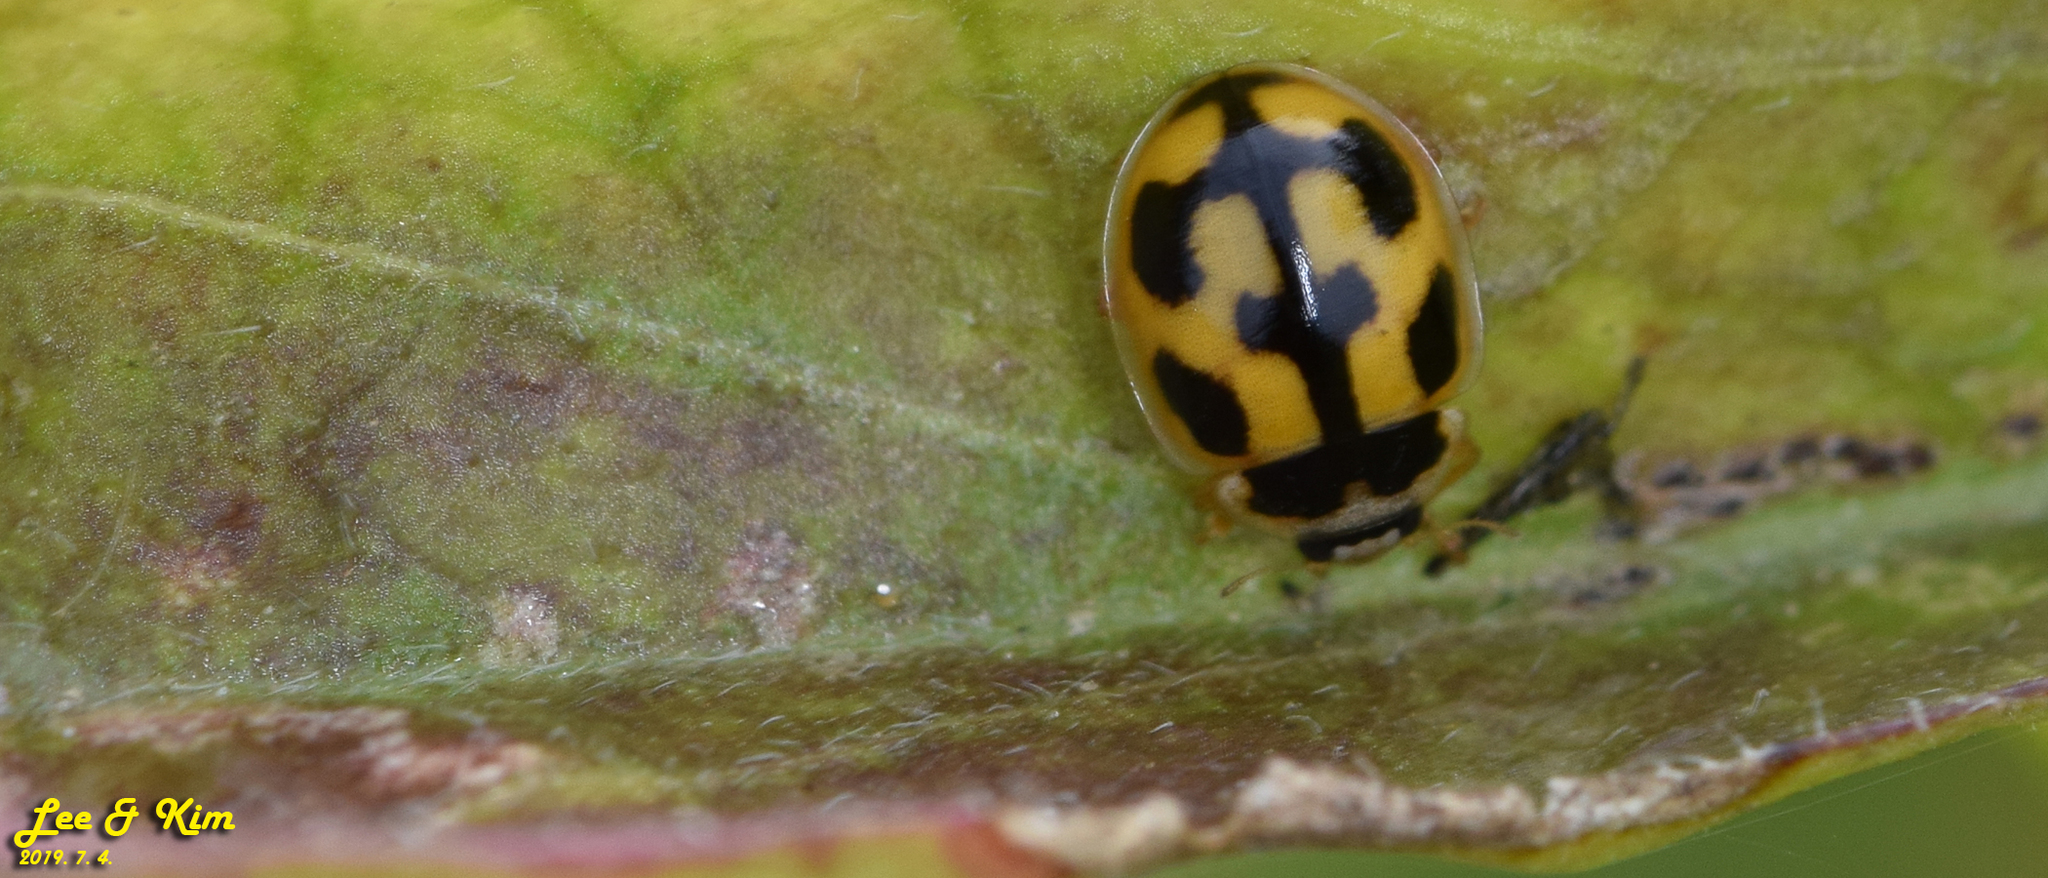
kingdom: Animalia
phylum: Arthropoda
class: Insecta
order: Coleoptera
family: Coccinellidae
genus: Propylea
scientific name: Propylea japonica
